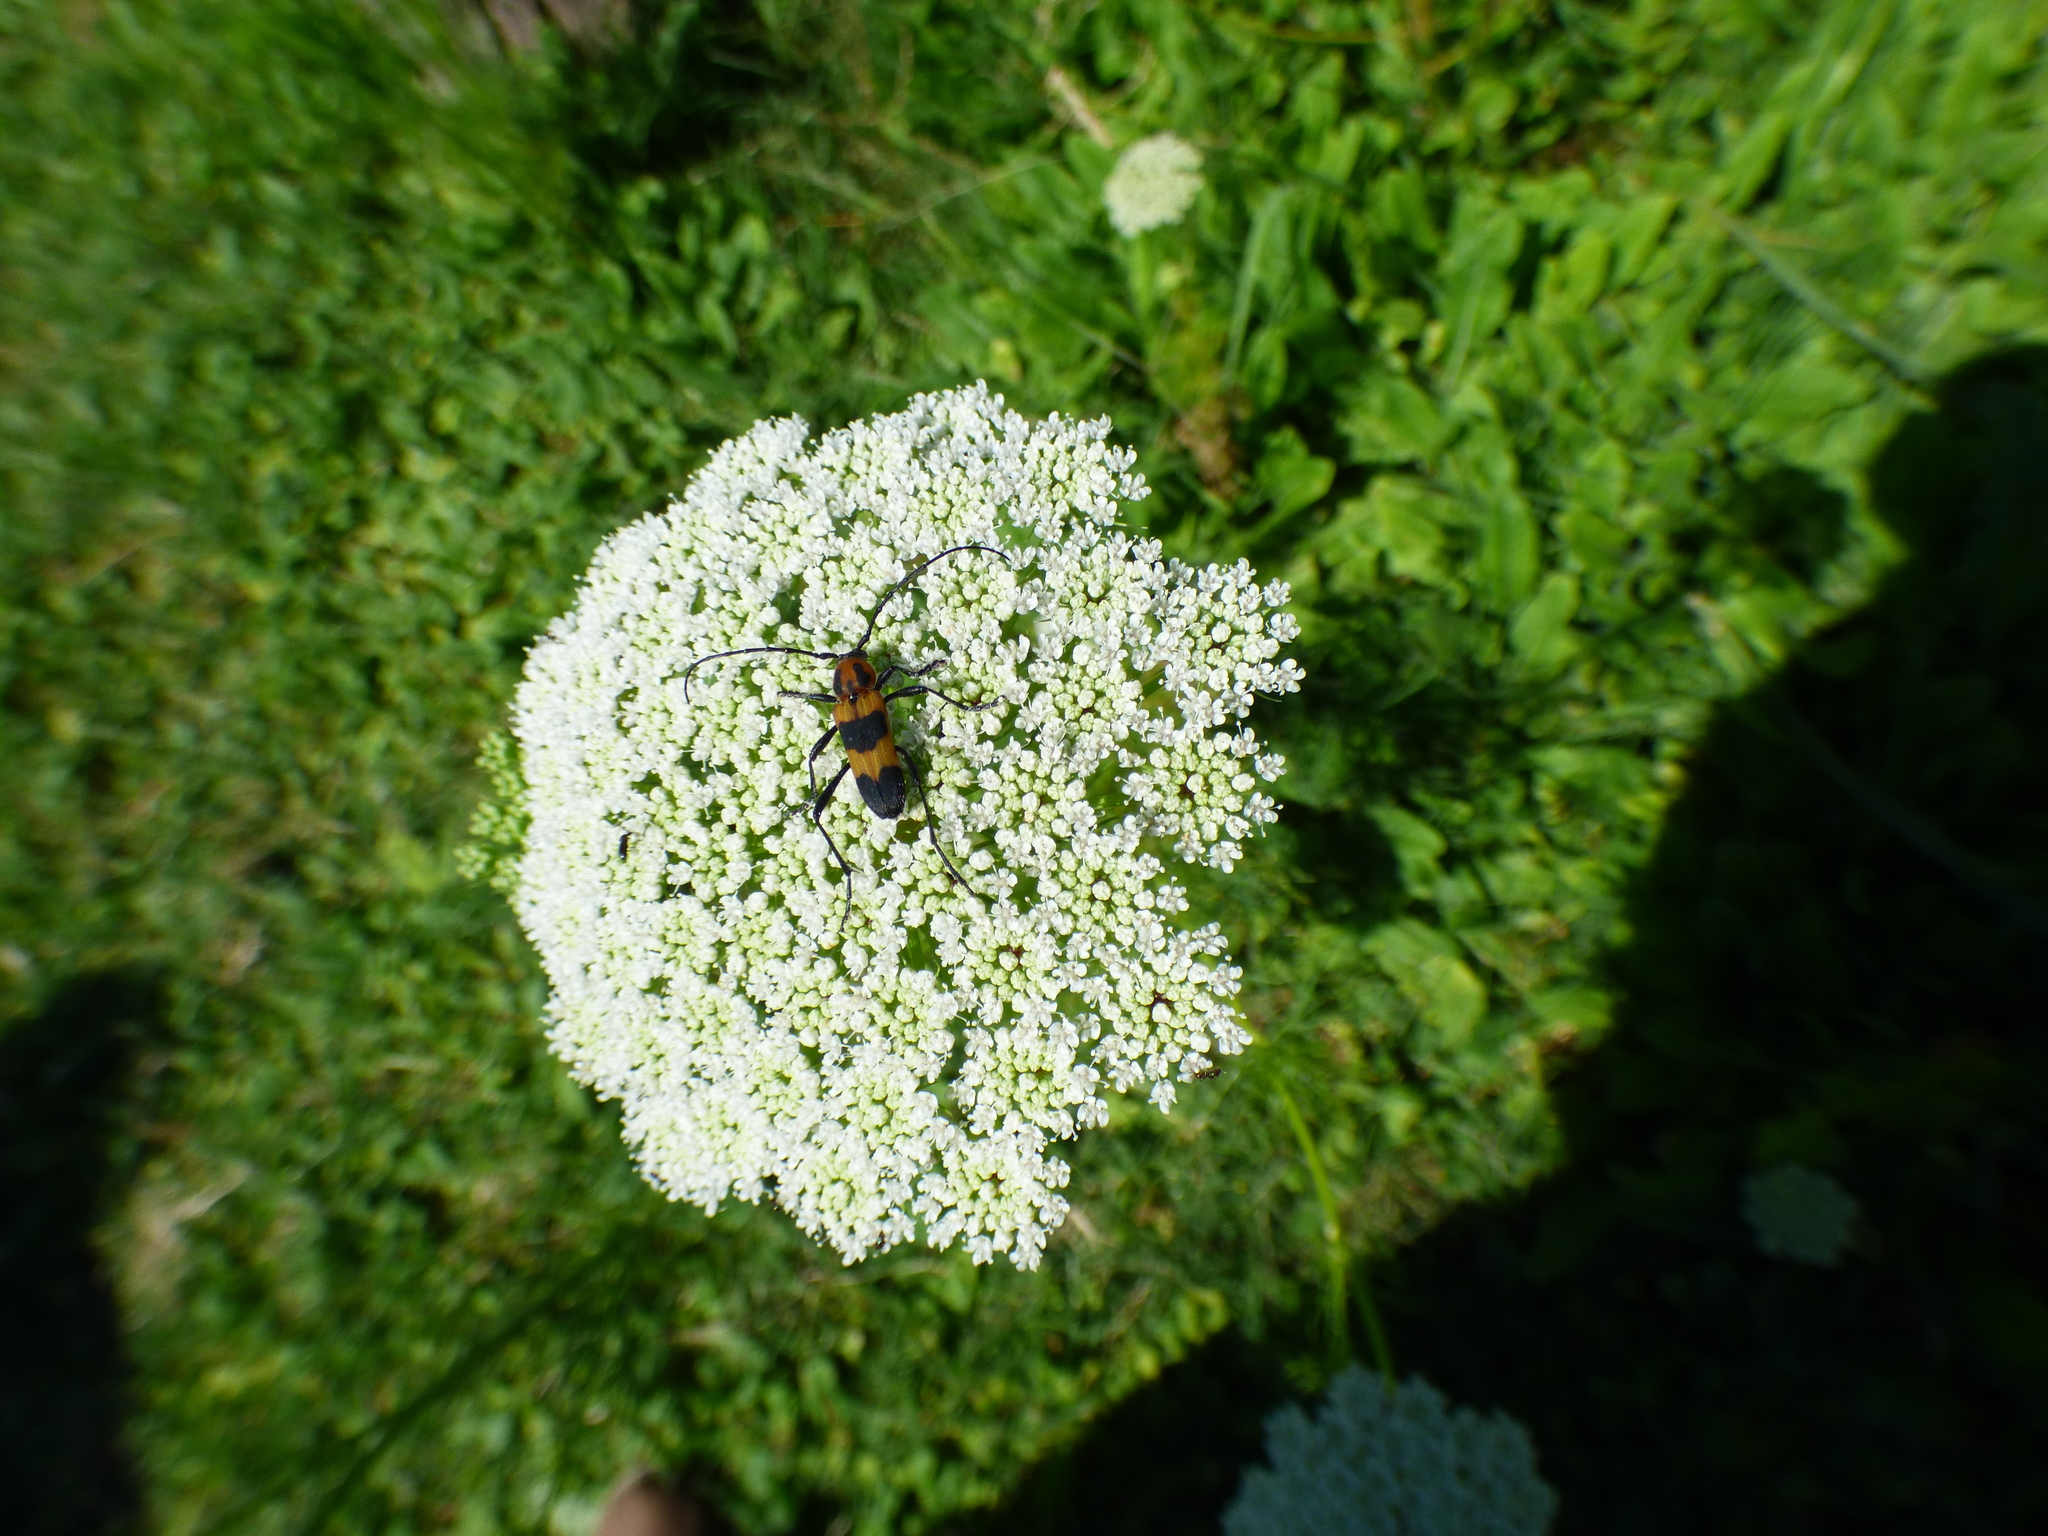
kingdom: Animalia
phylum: Arthropoda
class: Insecta
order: Coleoptera
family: Cerambycidae
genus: Erythrochiton
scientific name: Erythrochiton jucundum
